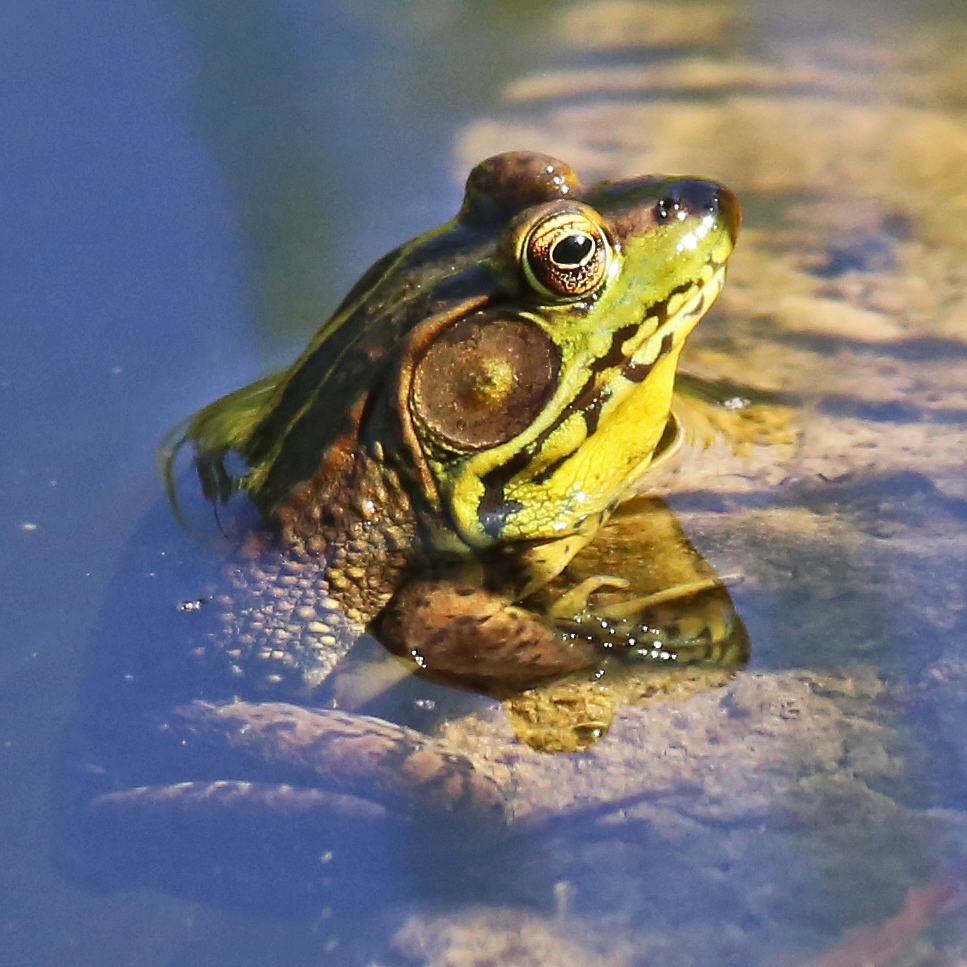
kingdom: Animalia
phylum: Chordata
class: Amphibia
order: Anura
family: Ranidae
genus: Lithobates
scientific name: Lithobates clamitans
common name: Green frog
